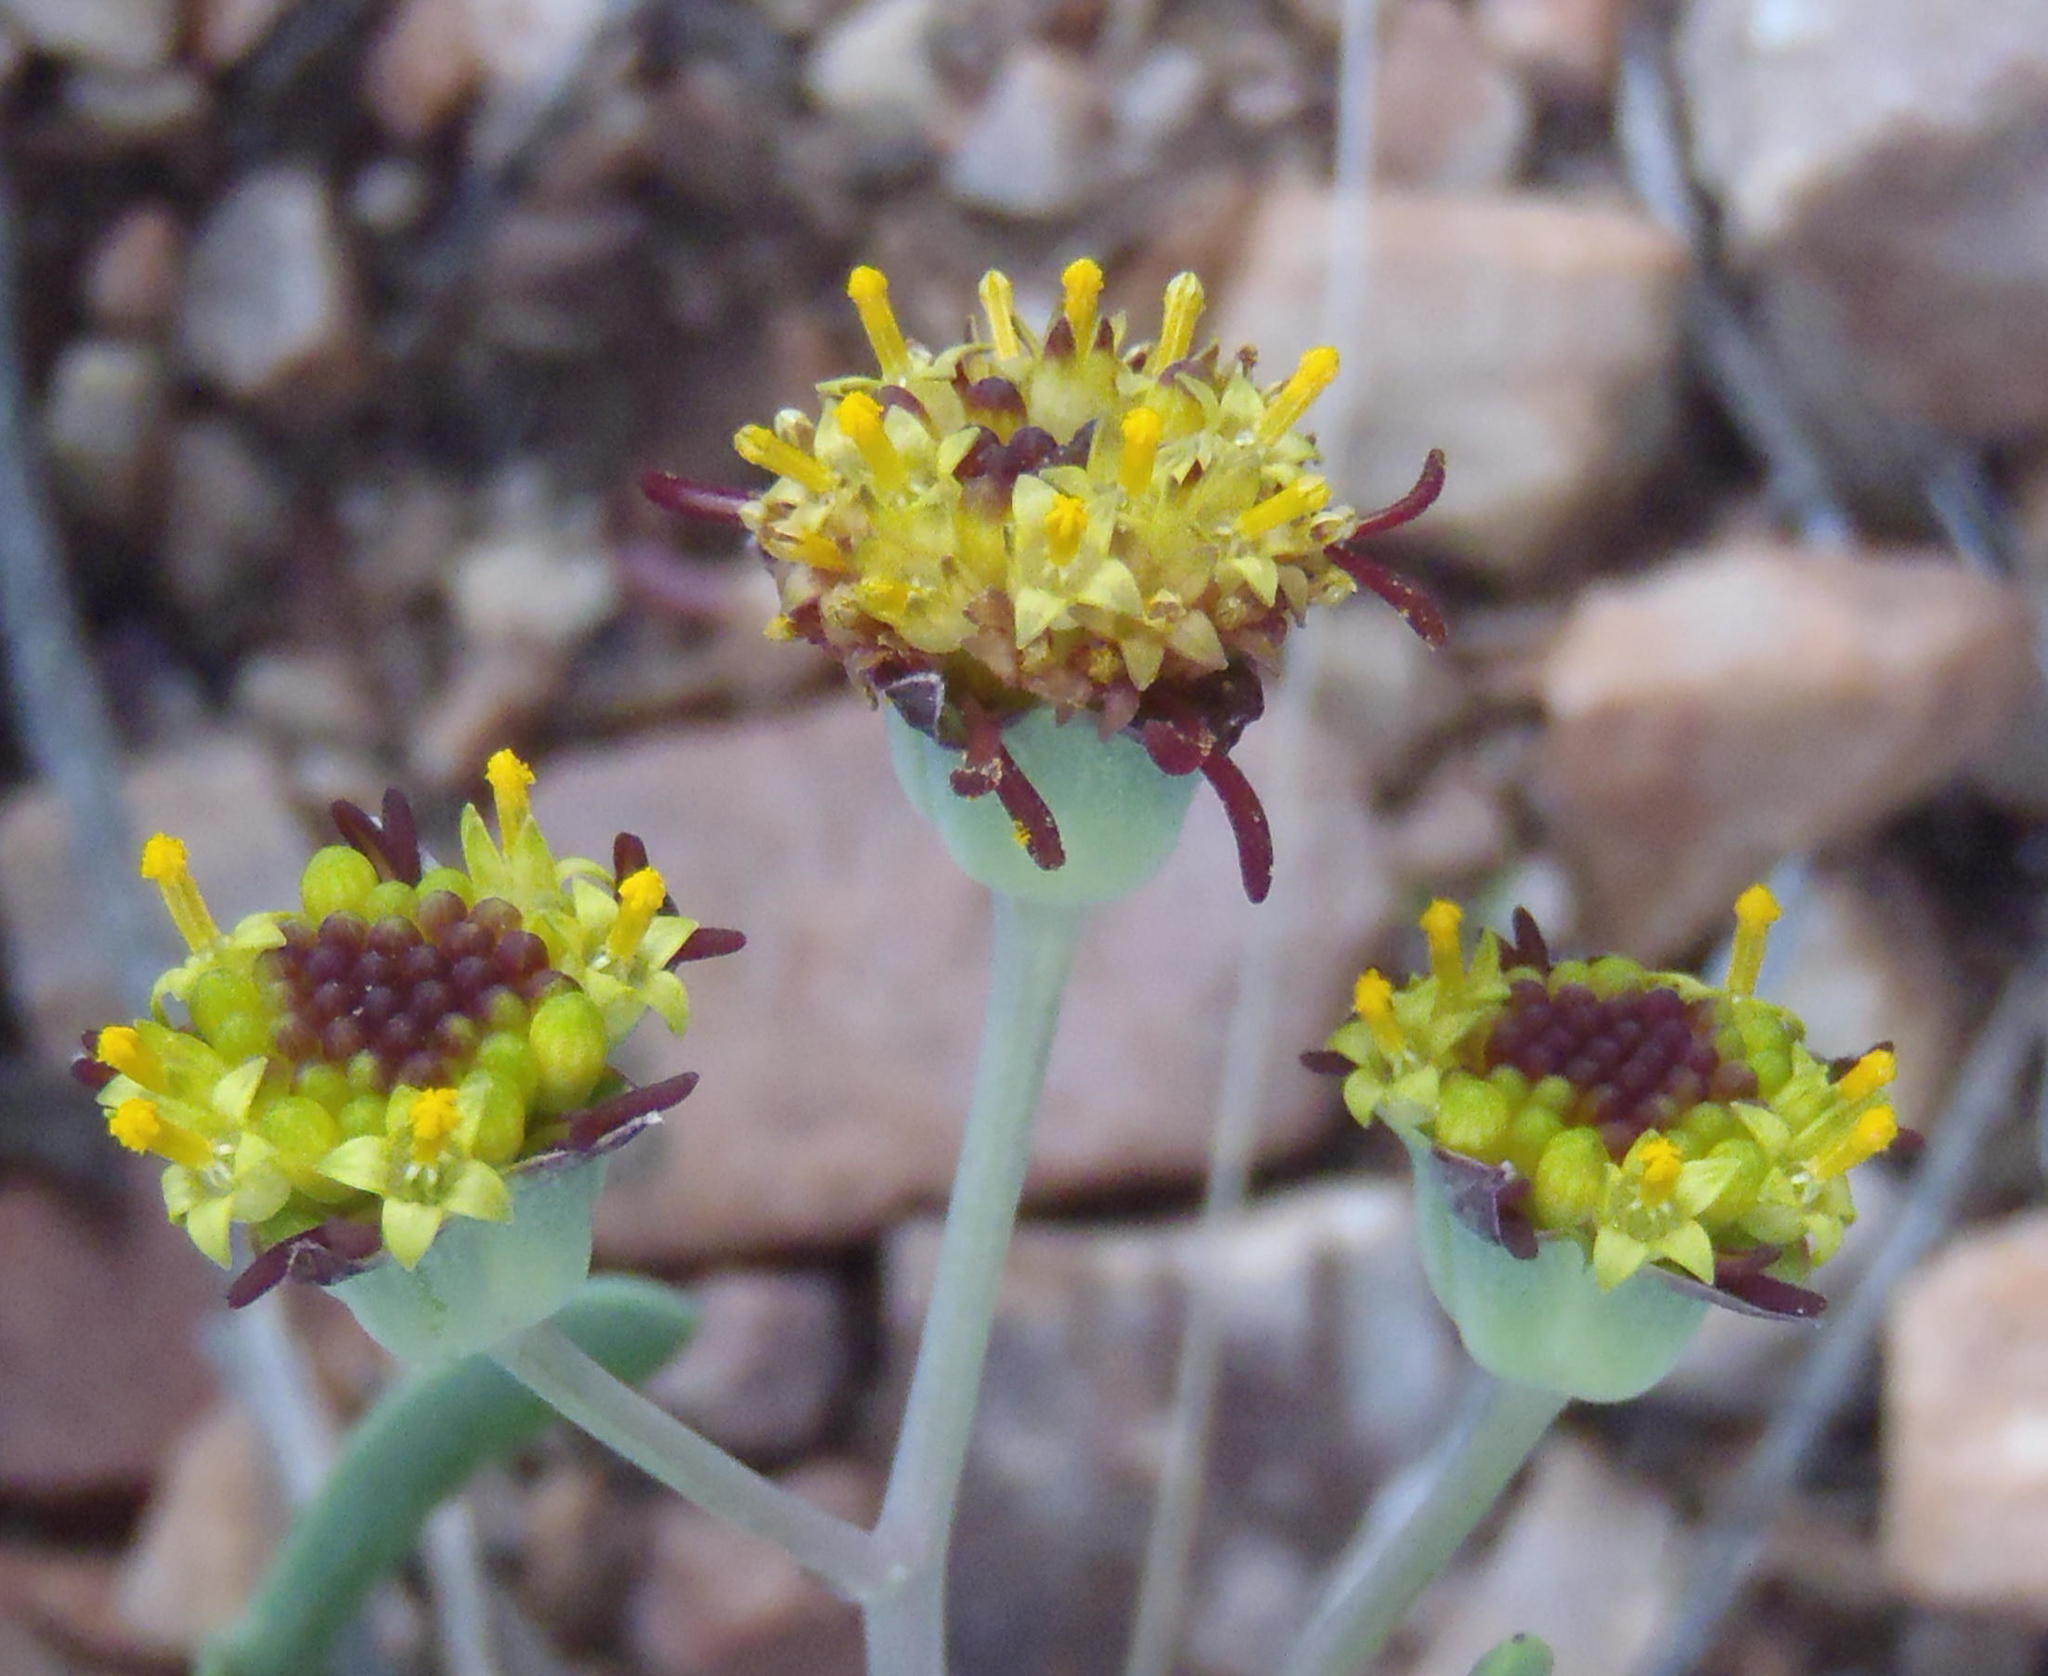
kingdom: Plantae
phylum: Tracheophyta
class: Magnoliopsida
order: Asterales
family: Asteraceae
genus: Othonna
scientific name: Othonna retrofracta
